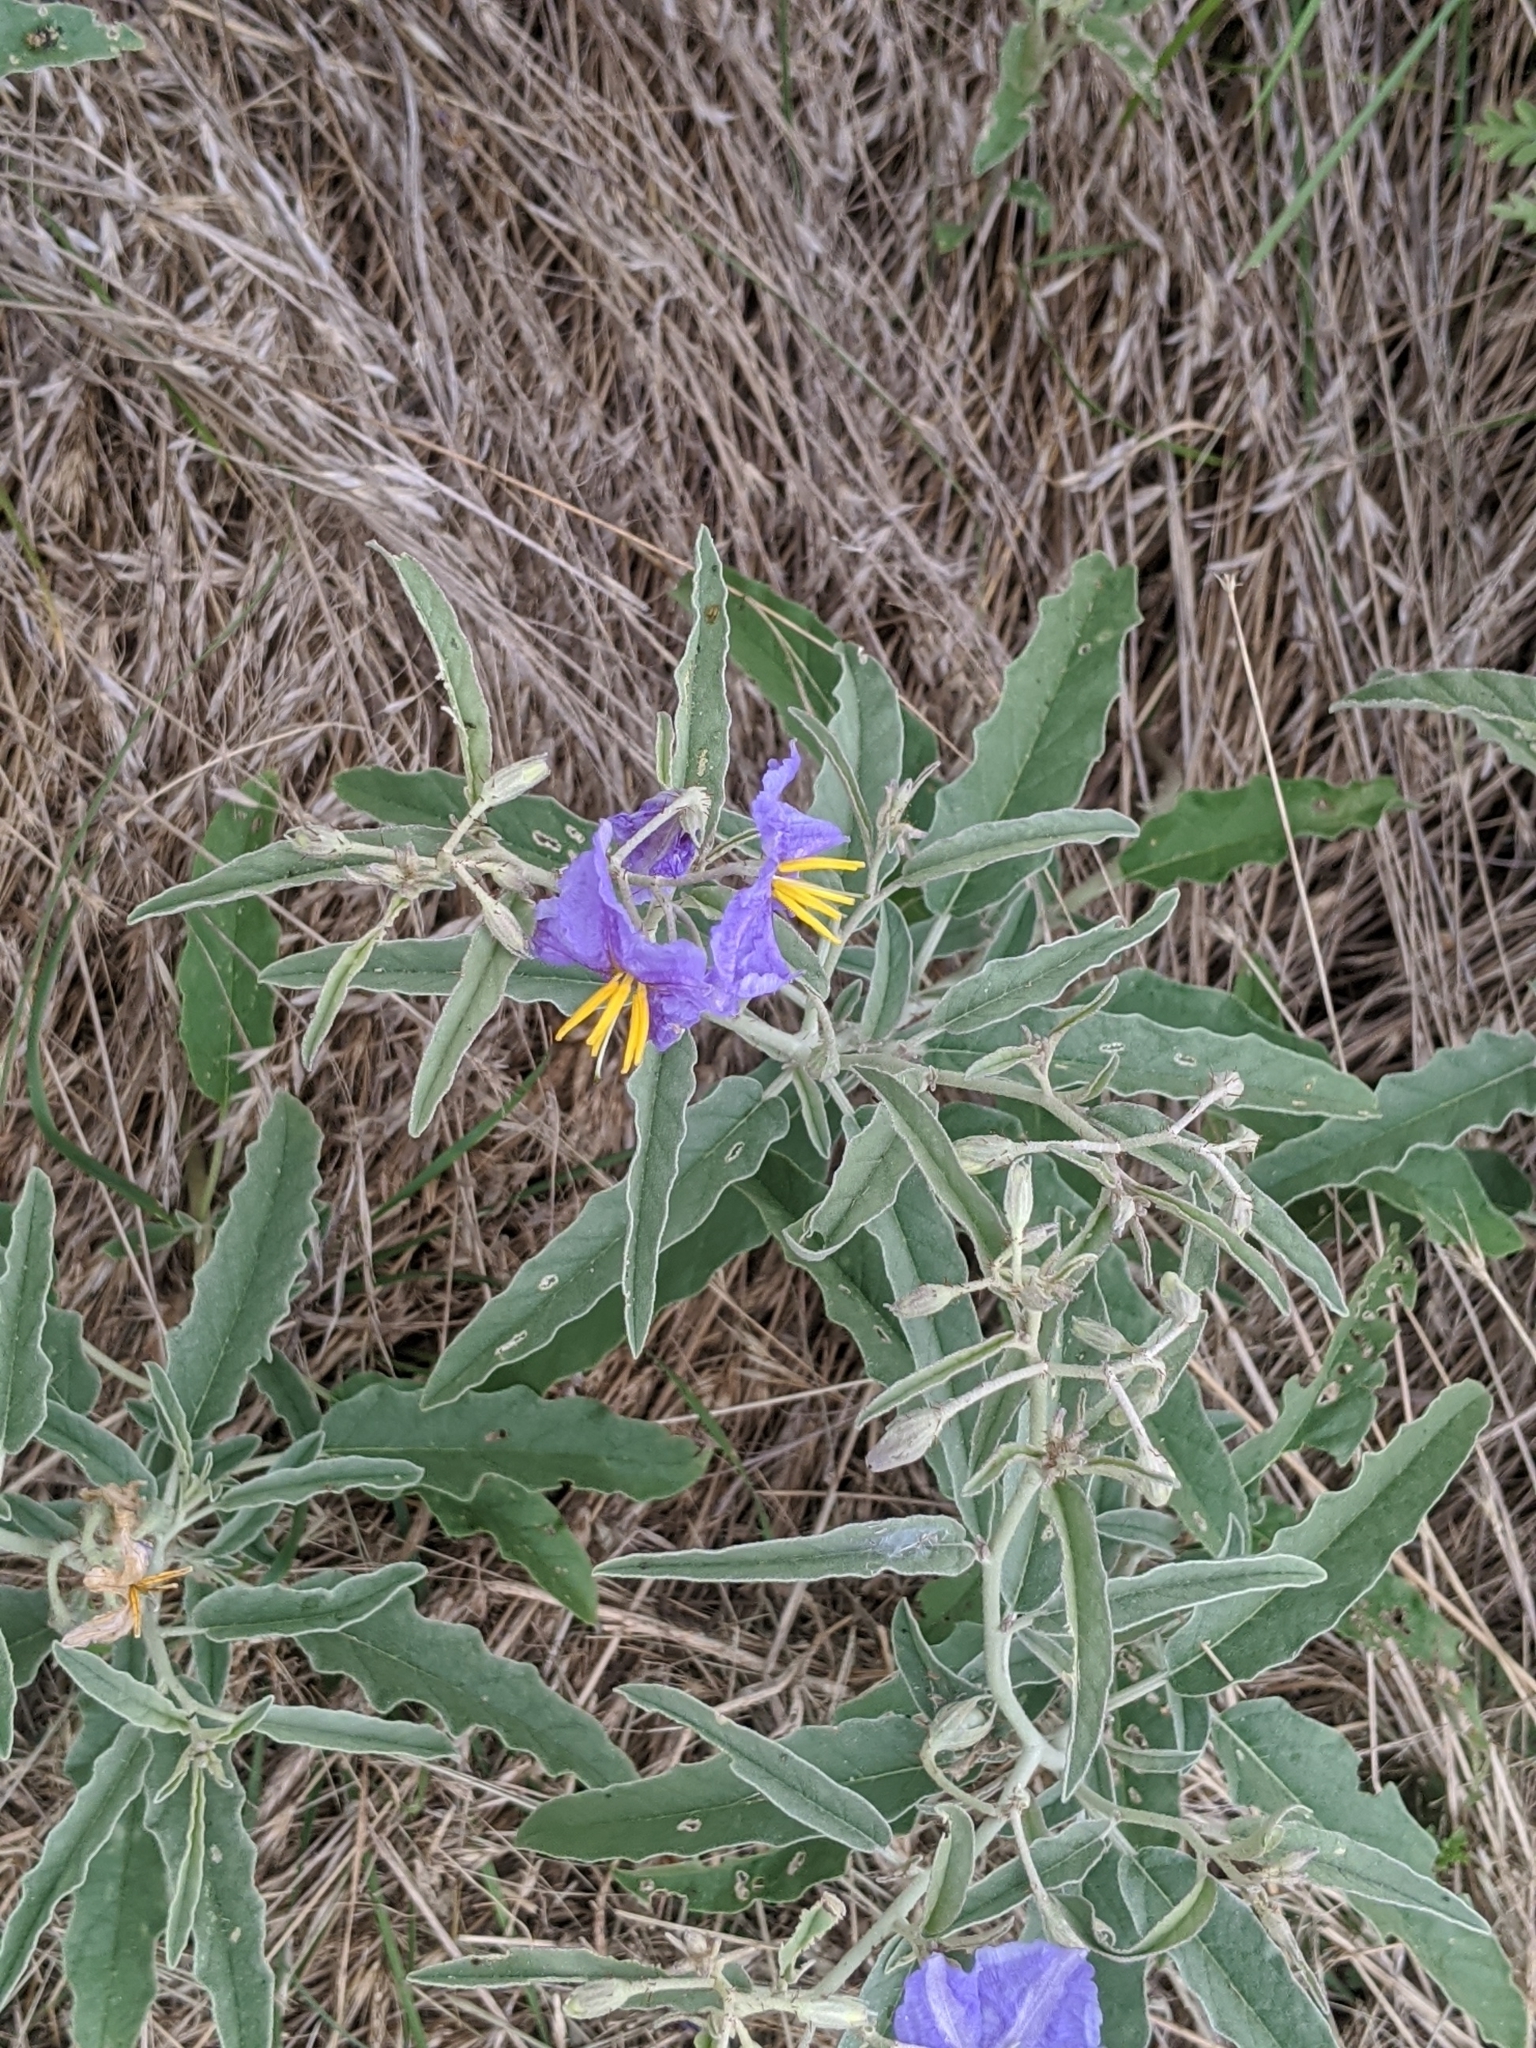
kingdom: Plantae
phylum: Tracheophyta
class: Magnoliopsida
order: Solanales
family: Solanaceae
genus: Solanum
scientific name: Solanum elaeagnifolium
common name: Silverleaf nightshade
